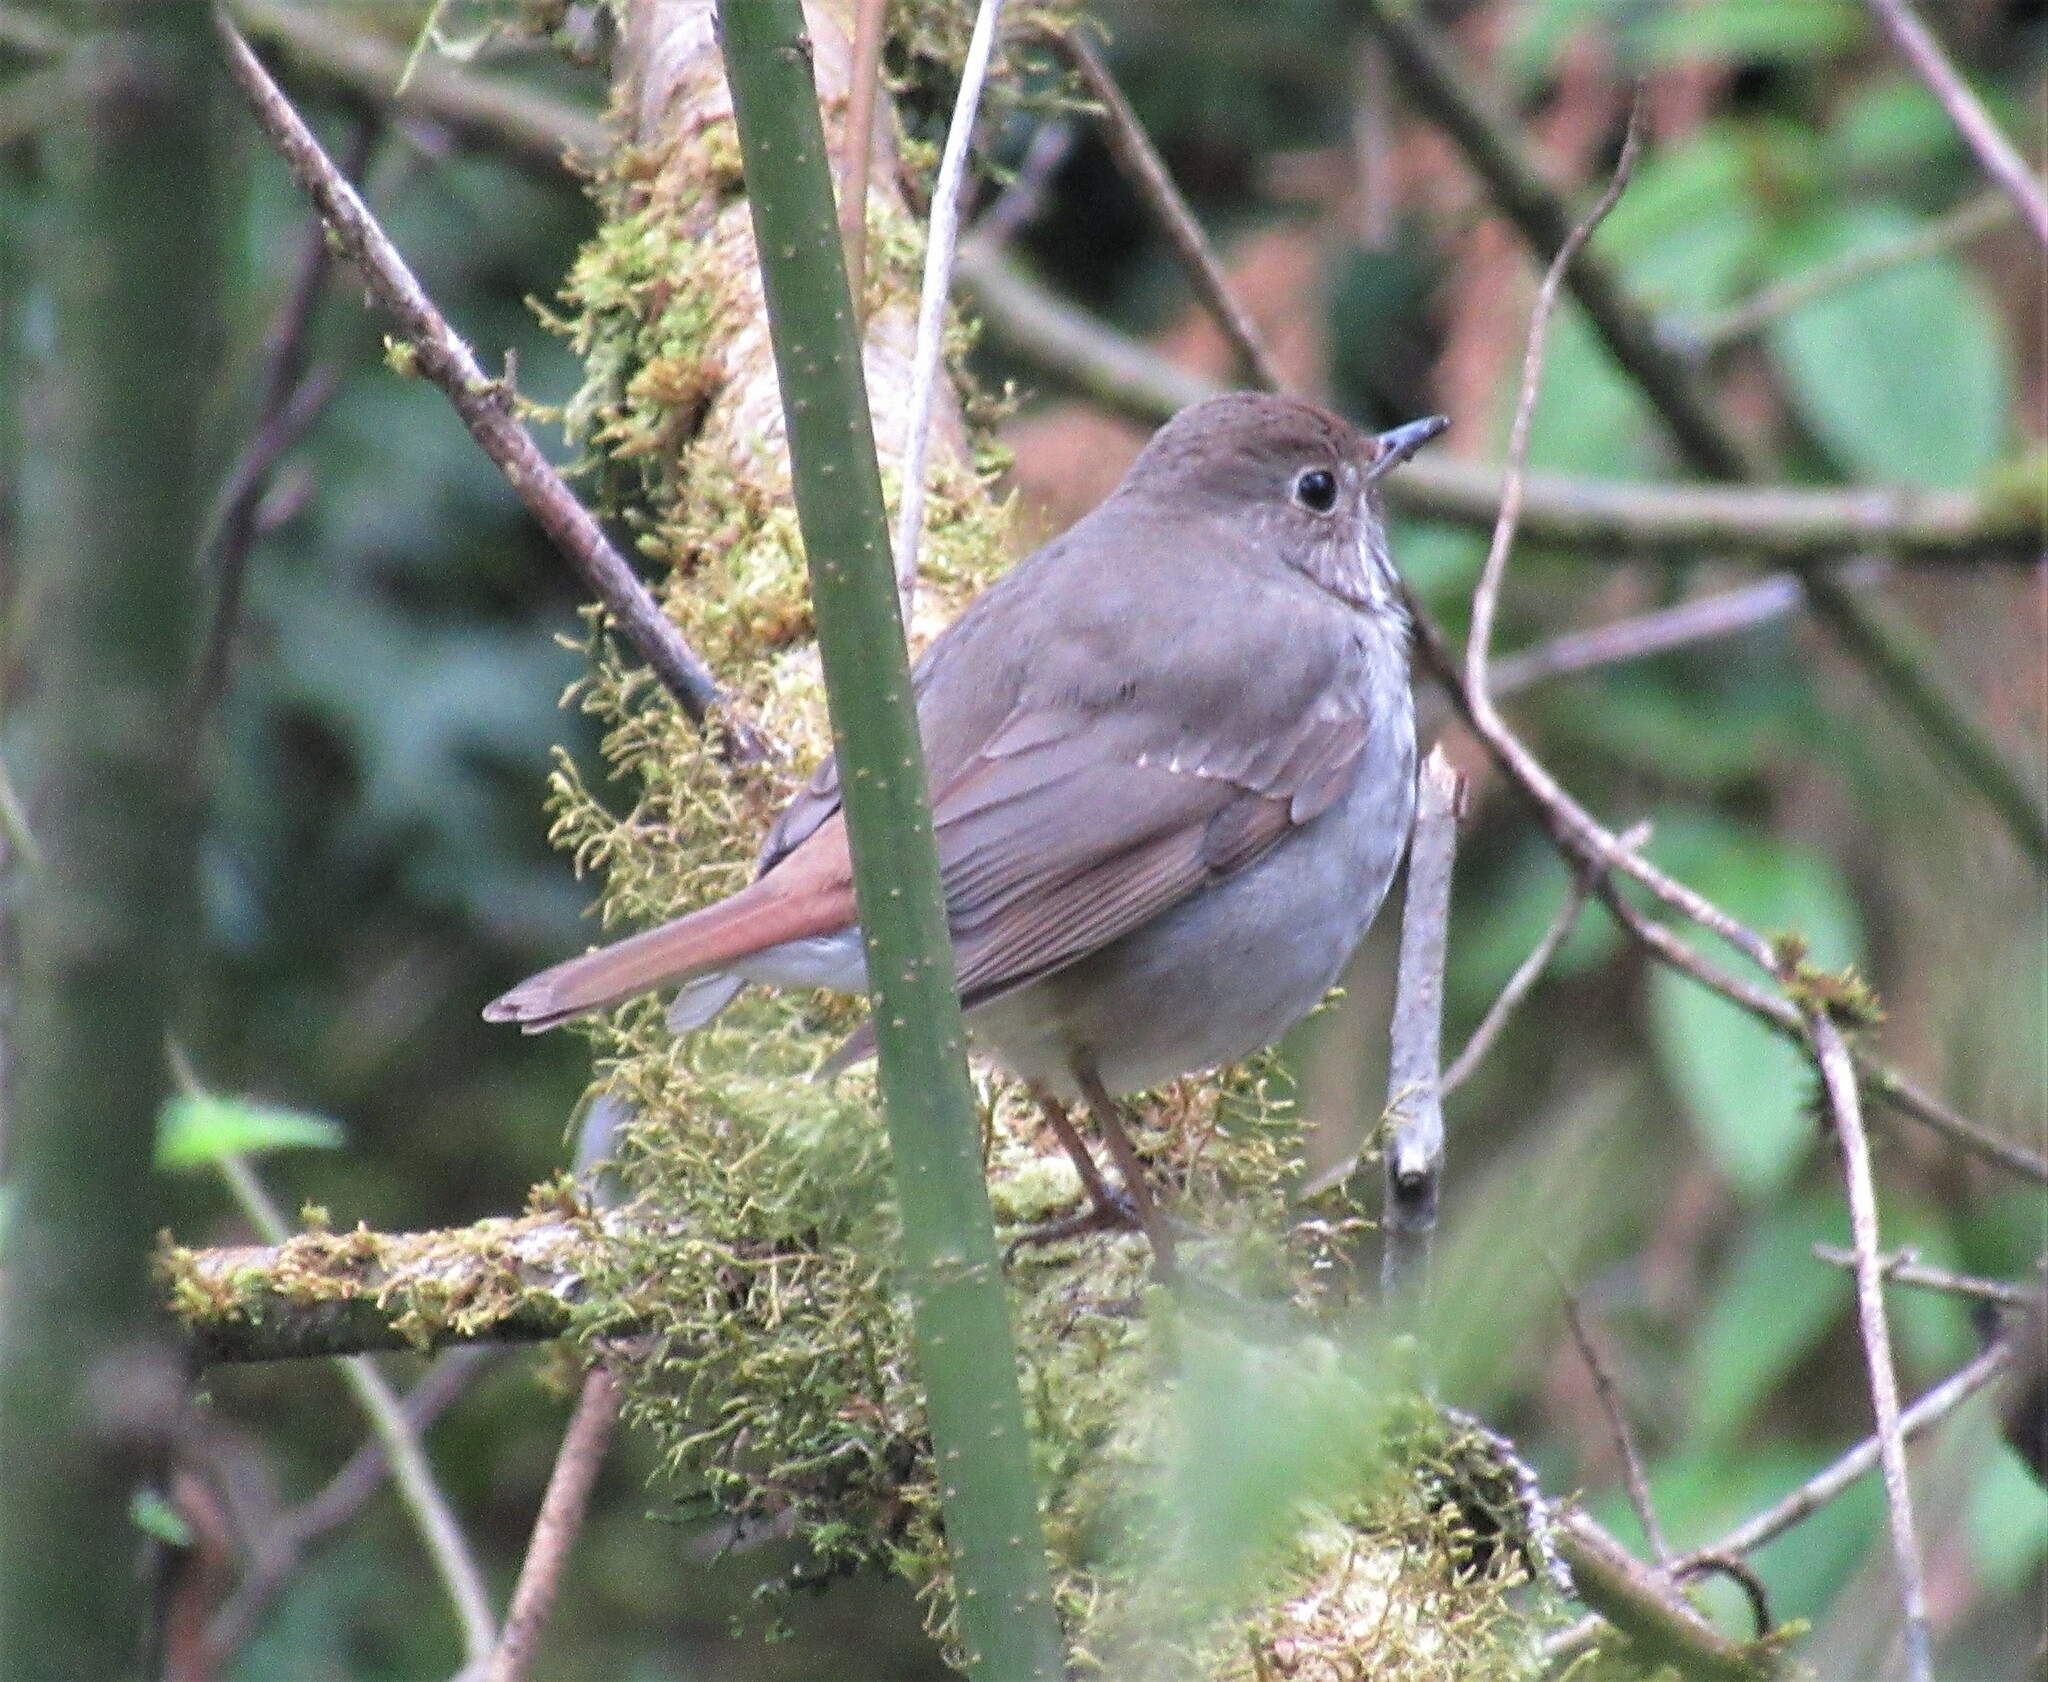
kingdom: Animalia
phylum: Chordata
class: Aves
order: Passeriformes
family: Turdidae
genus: Catharus
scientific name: Catharus guttatus
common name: Hermit thrush
